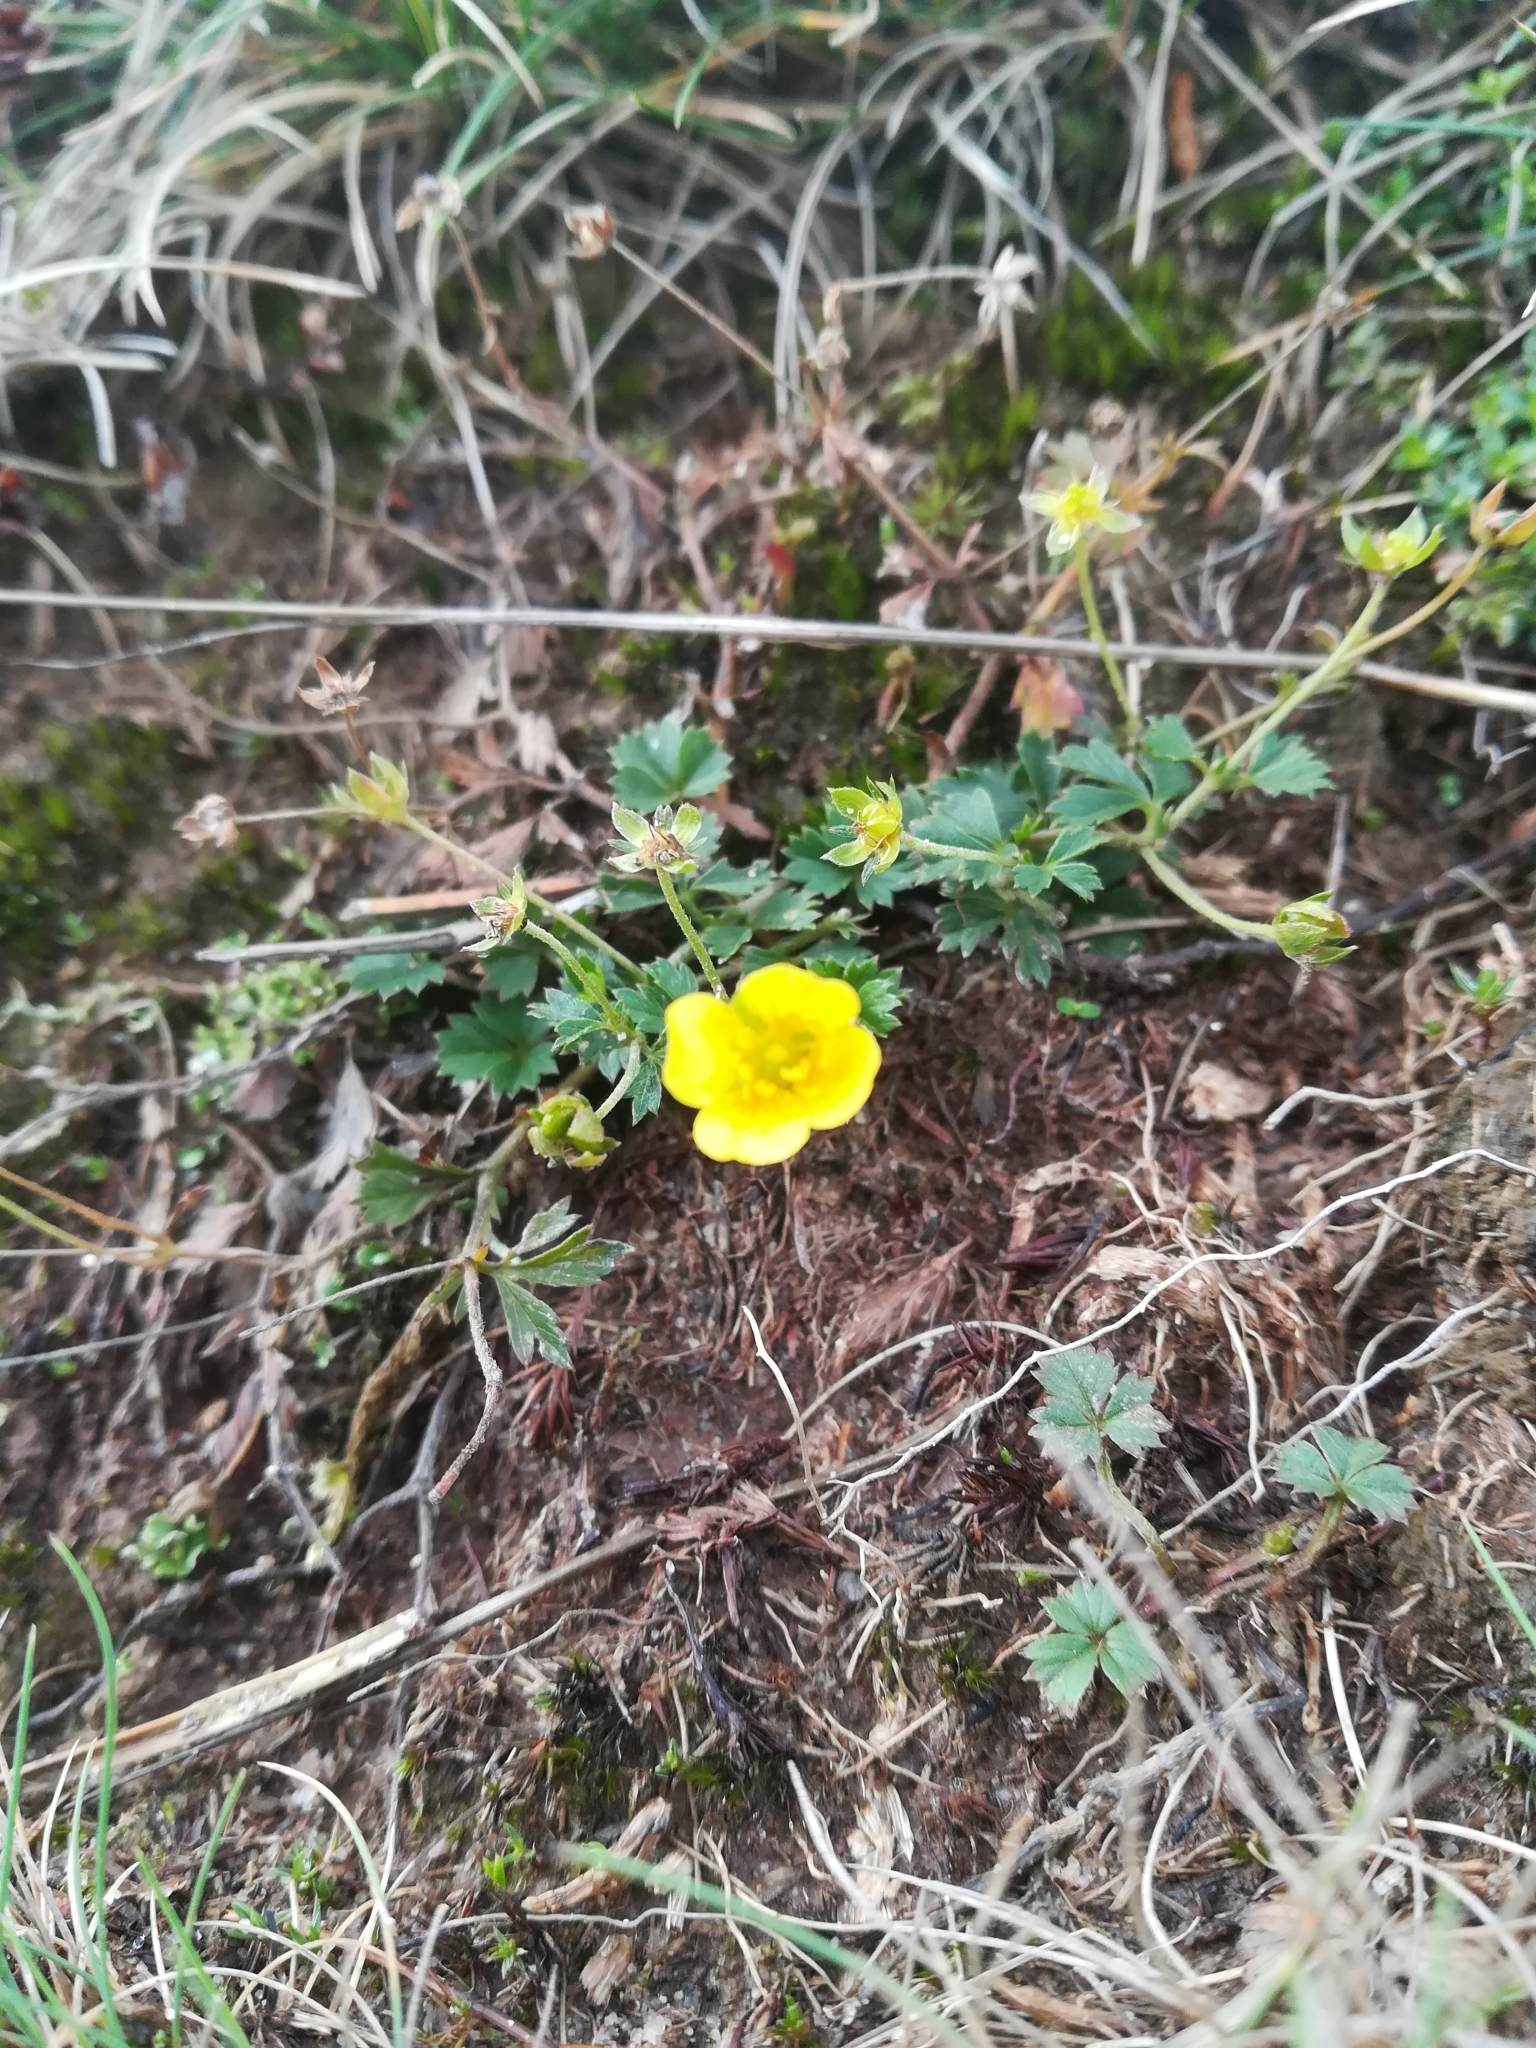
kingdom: Plantae
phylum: Tracheophyta
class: Magnoliopsida
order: Rosales
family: Rosaceae
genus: Potentilla
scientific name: Potentilla erecta
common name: Tormentil
